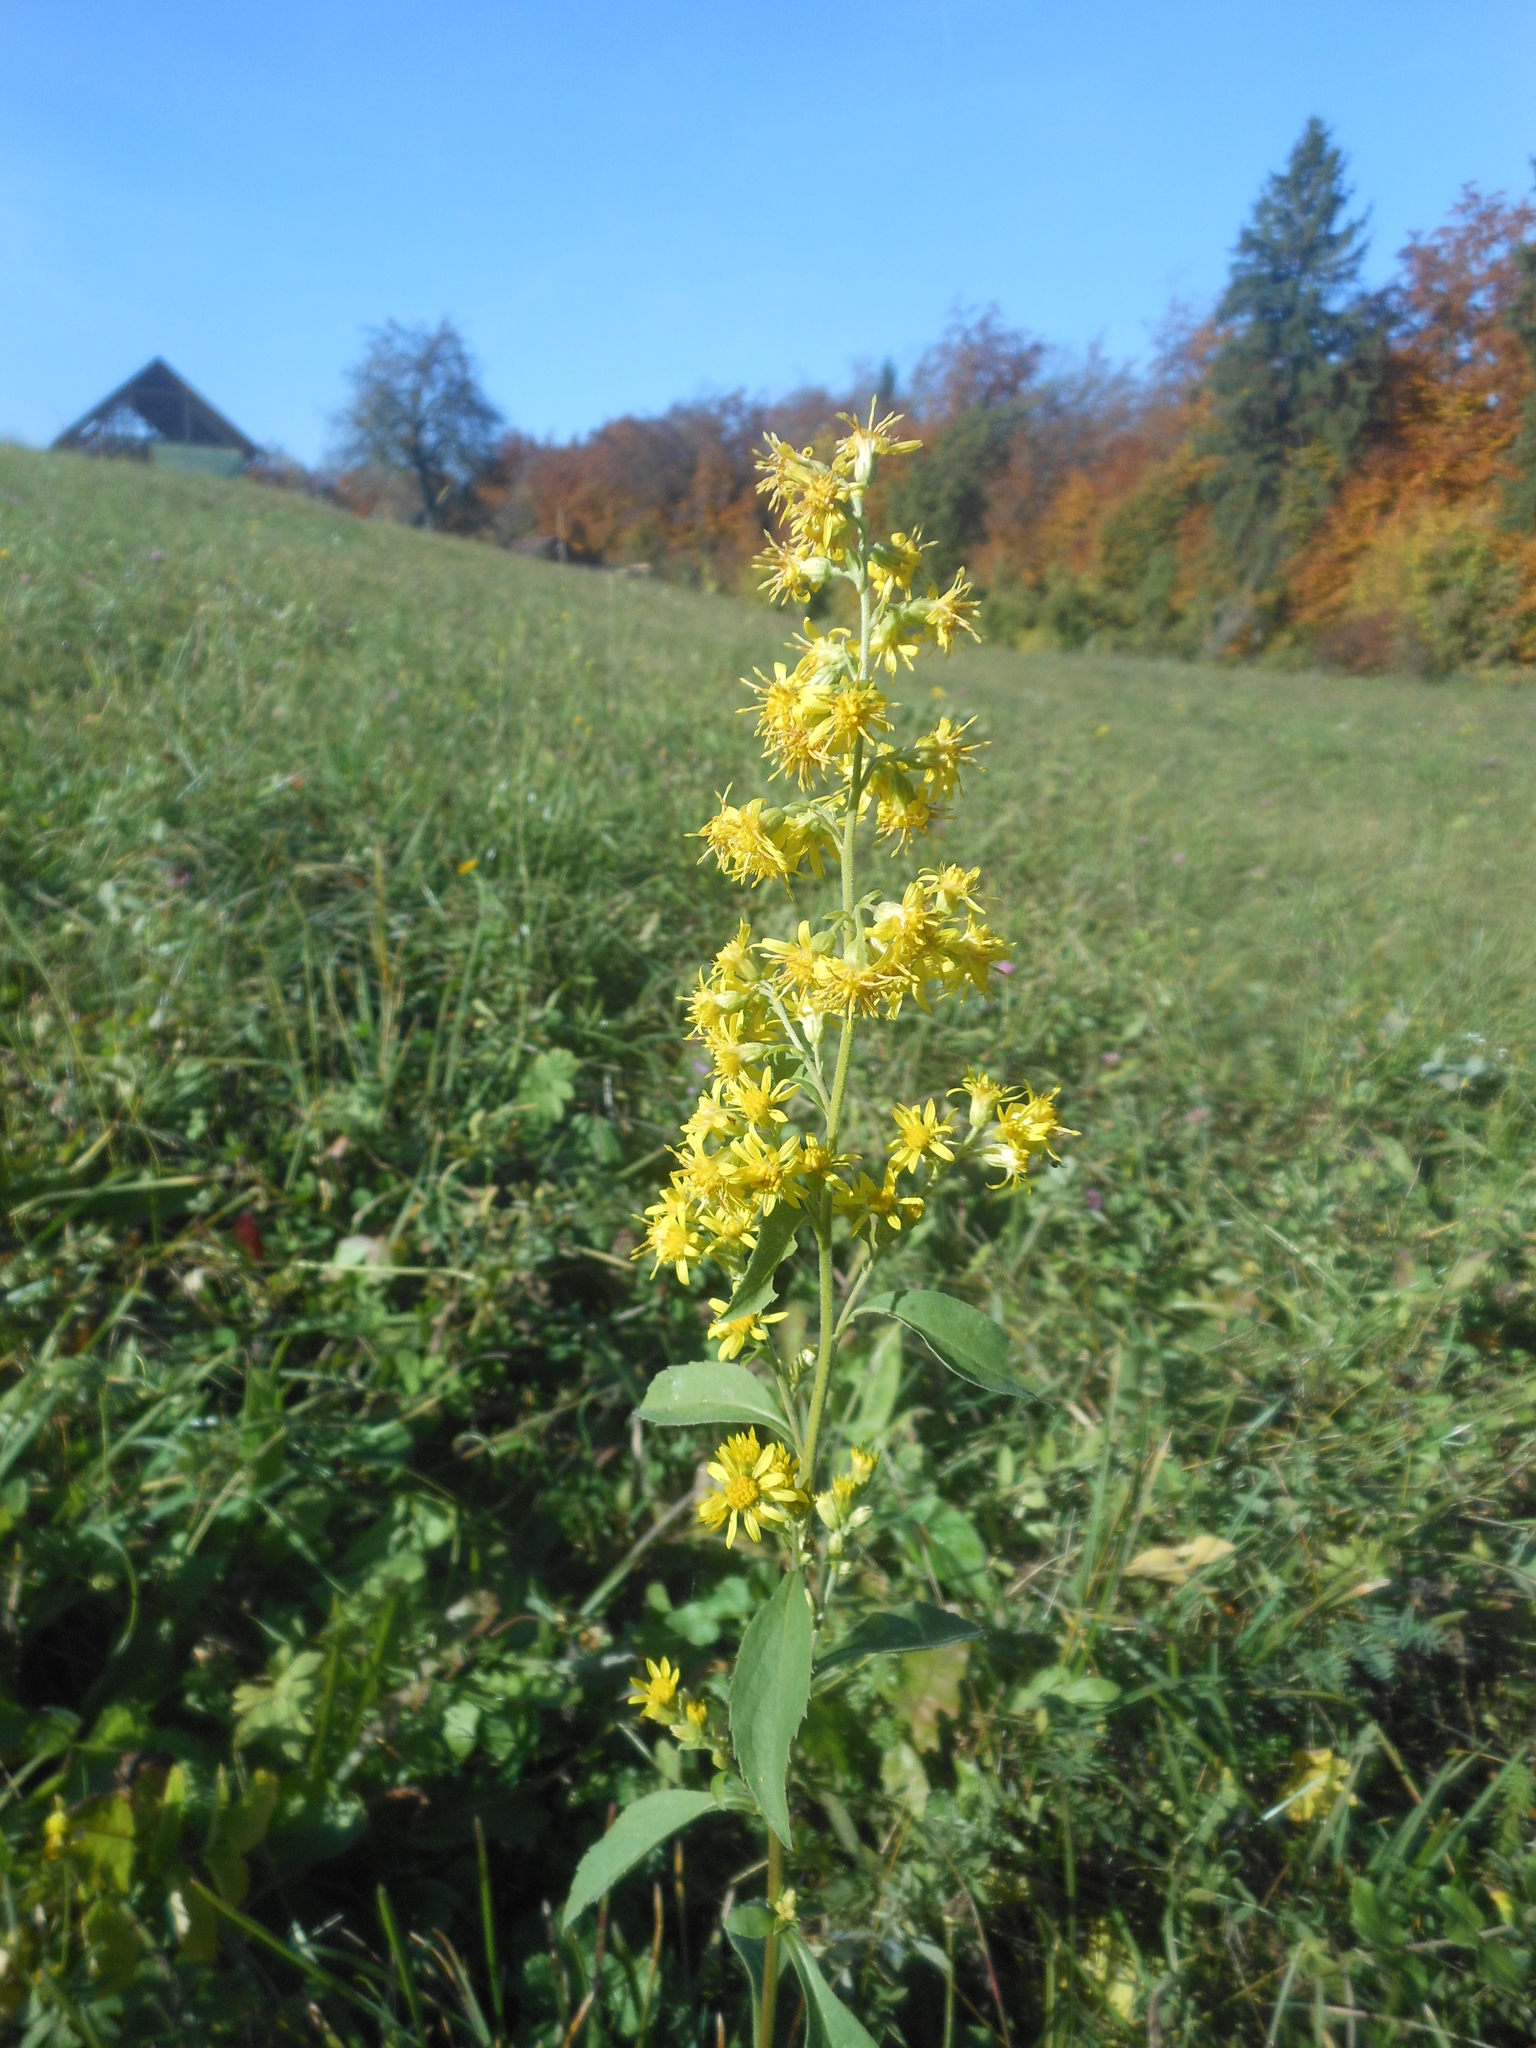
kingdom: Plantae
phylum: Tracheophyta
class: Magnoliopsida
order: Asterales
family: Asteraceae
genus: Solidago
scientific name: Solidago virgaurea
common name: Goldenrod
